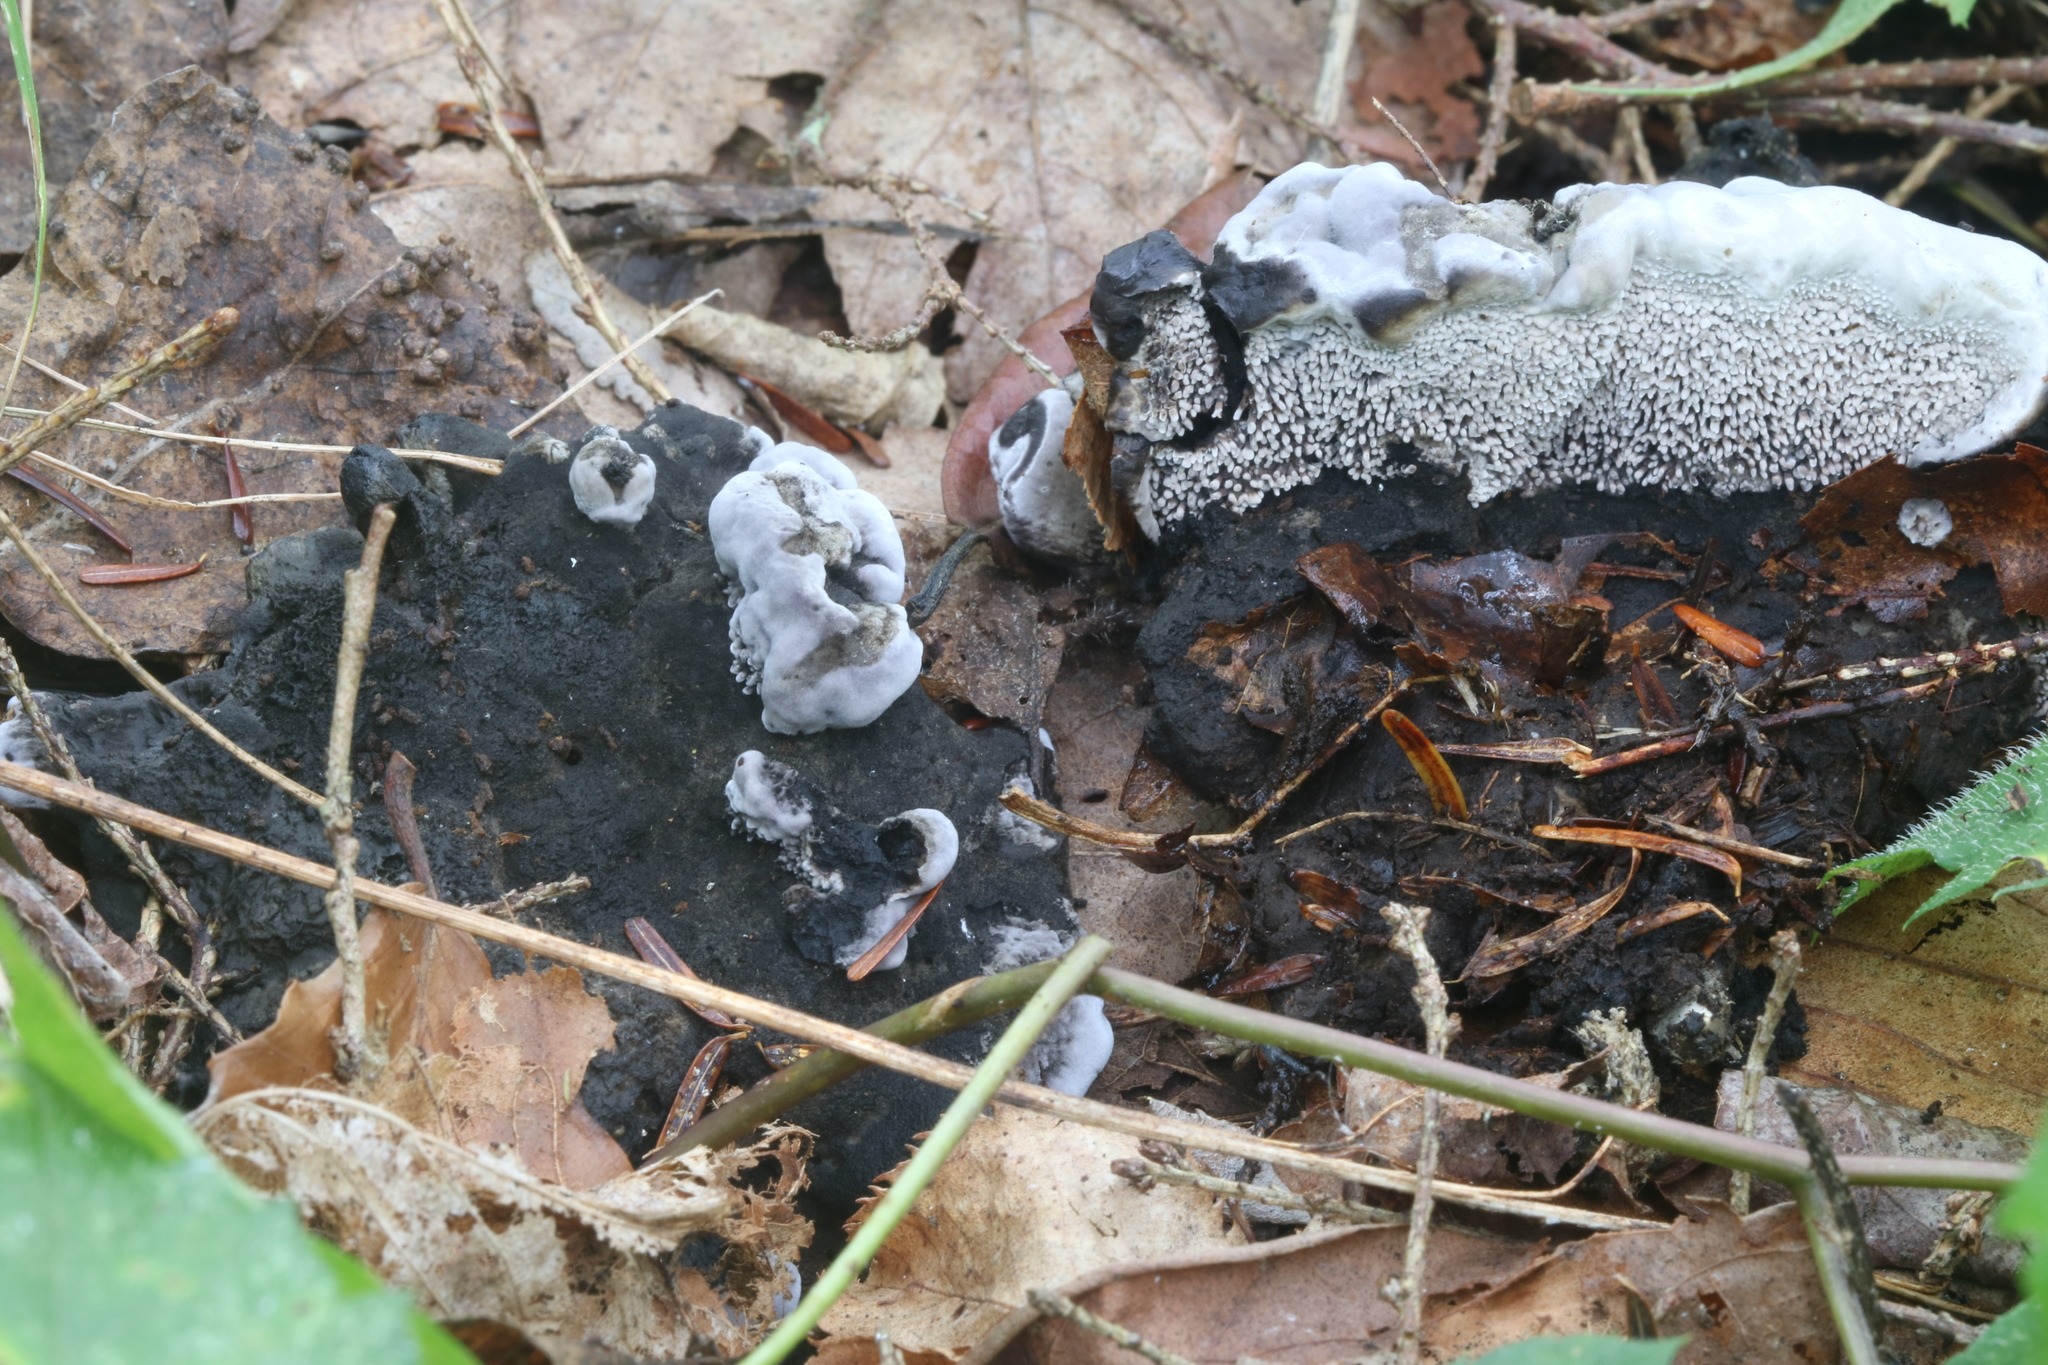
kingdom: Fungi
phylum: Basidiomycota
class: Agaricomycetes
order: Thelephorales
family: Thelephoraceae
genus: Phellodon
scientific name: Phellodon niger
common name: Black tooth
